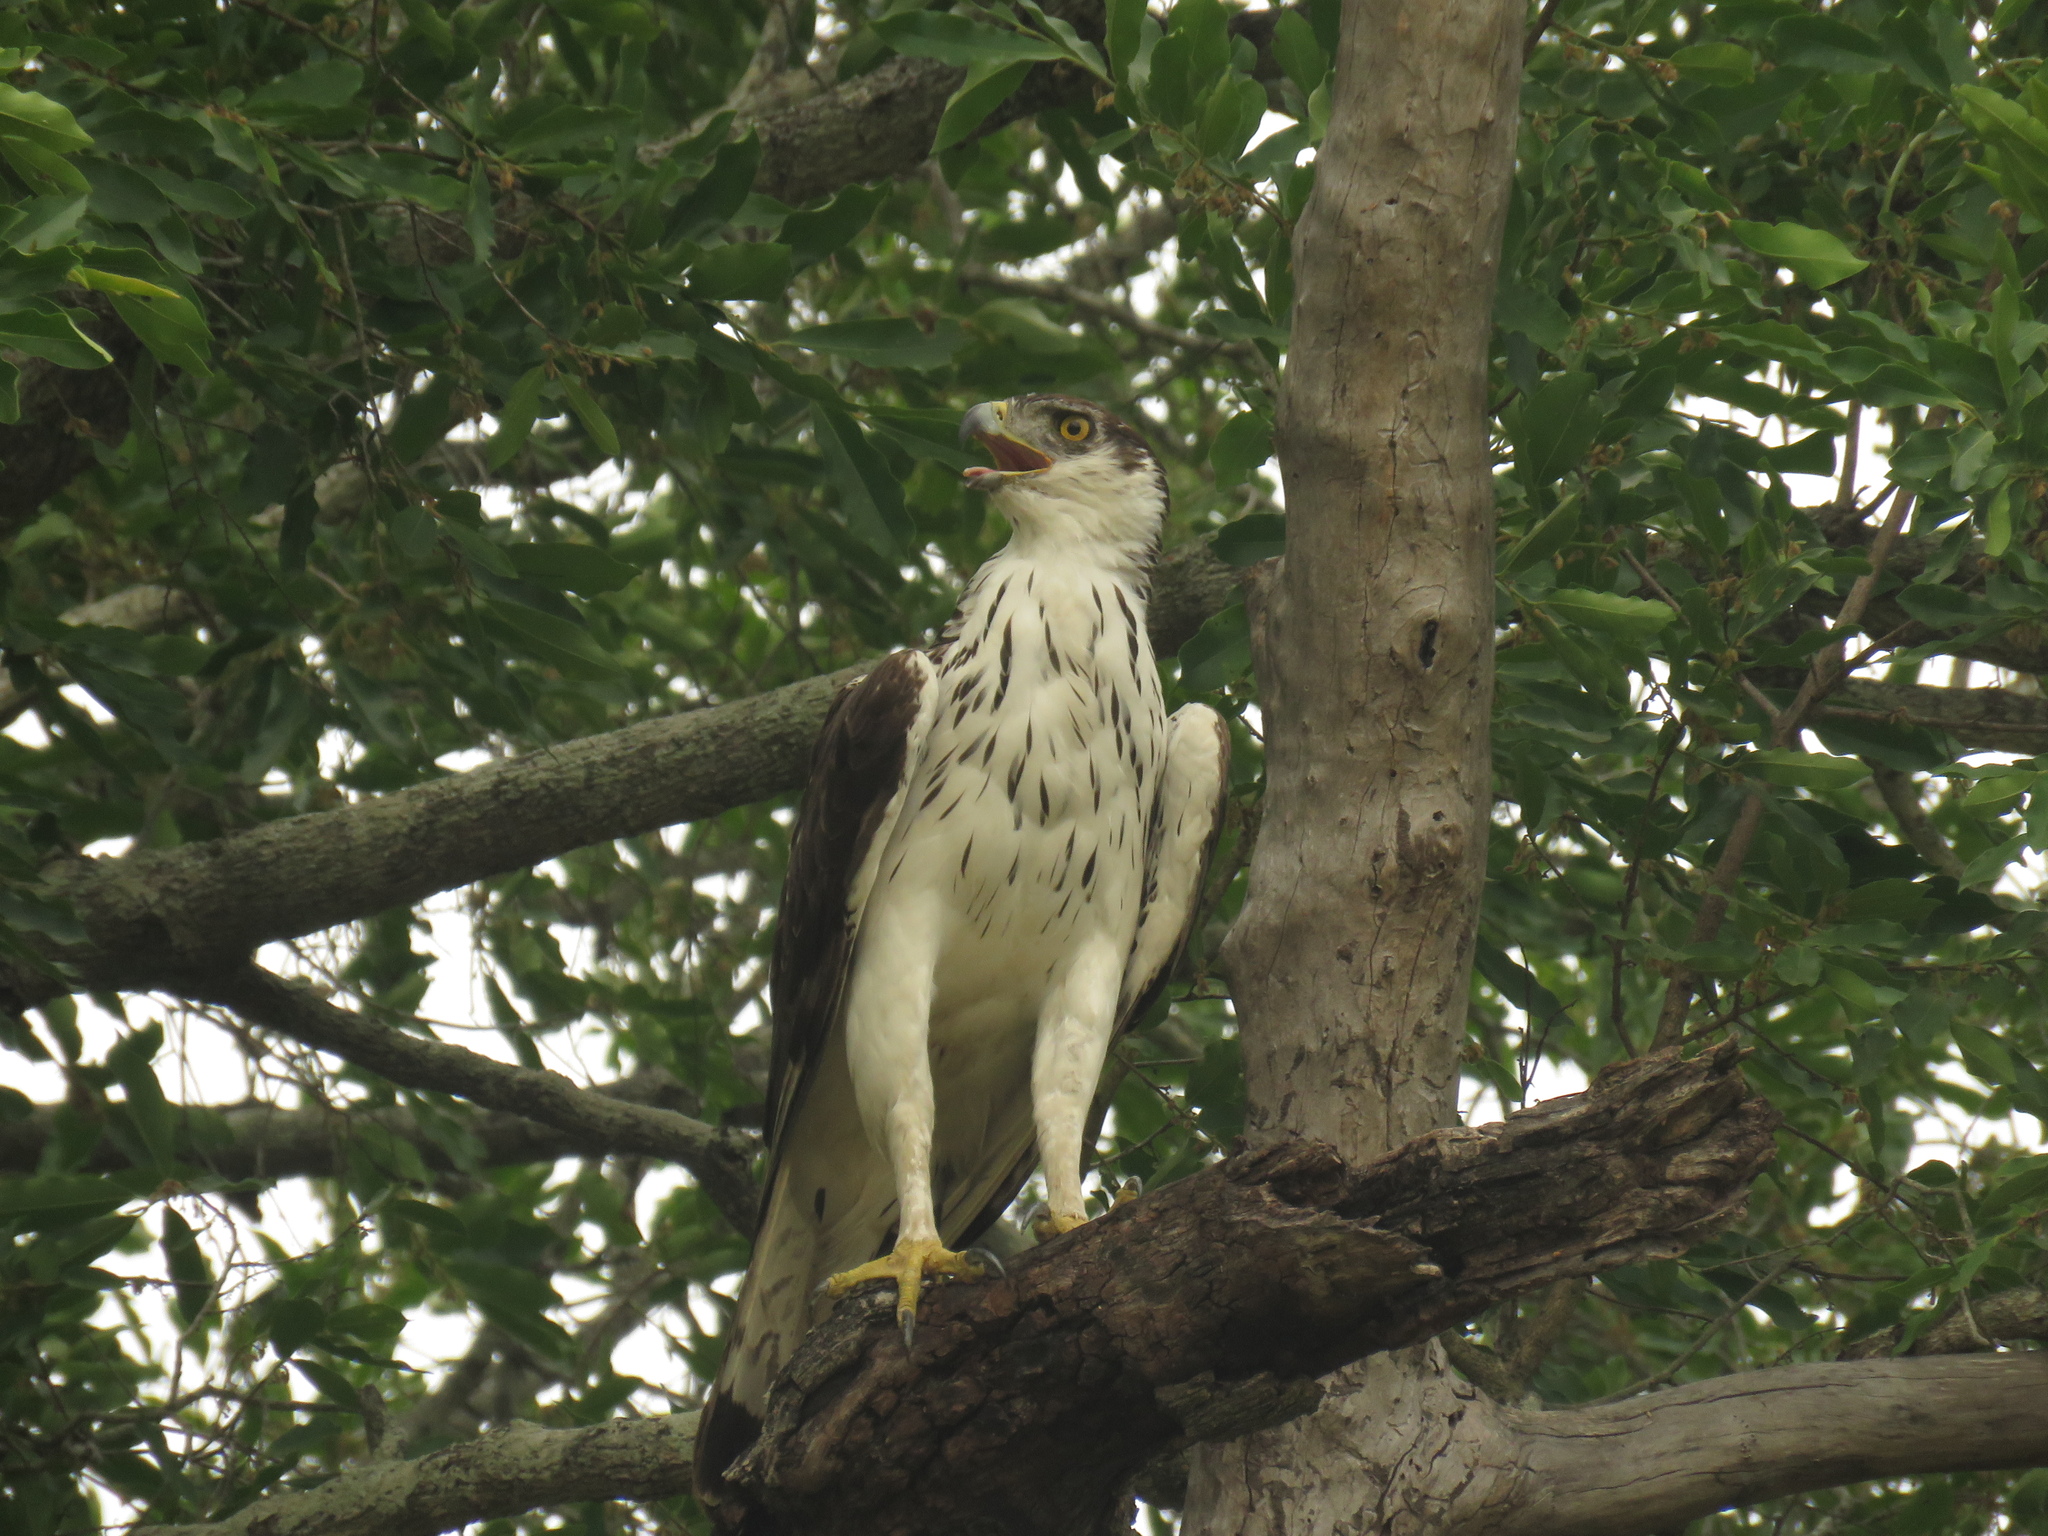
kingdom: Animalia
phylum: Chordata
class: Aves
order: Accipitriformes
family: Accipitridae
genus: Aquila
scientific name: Aquila spilogaster
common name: African hawk-eagle
